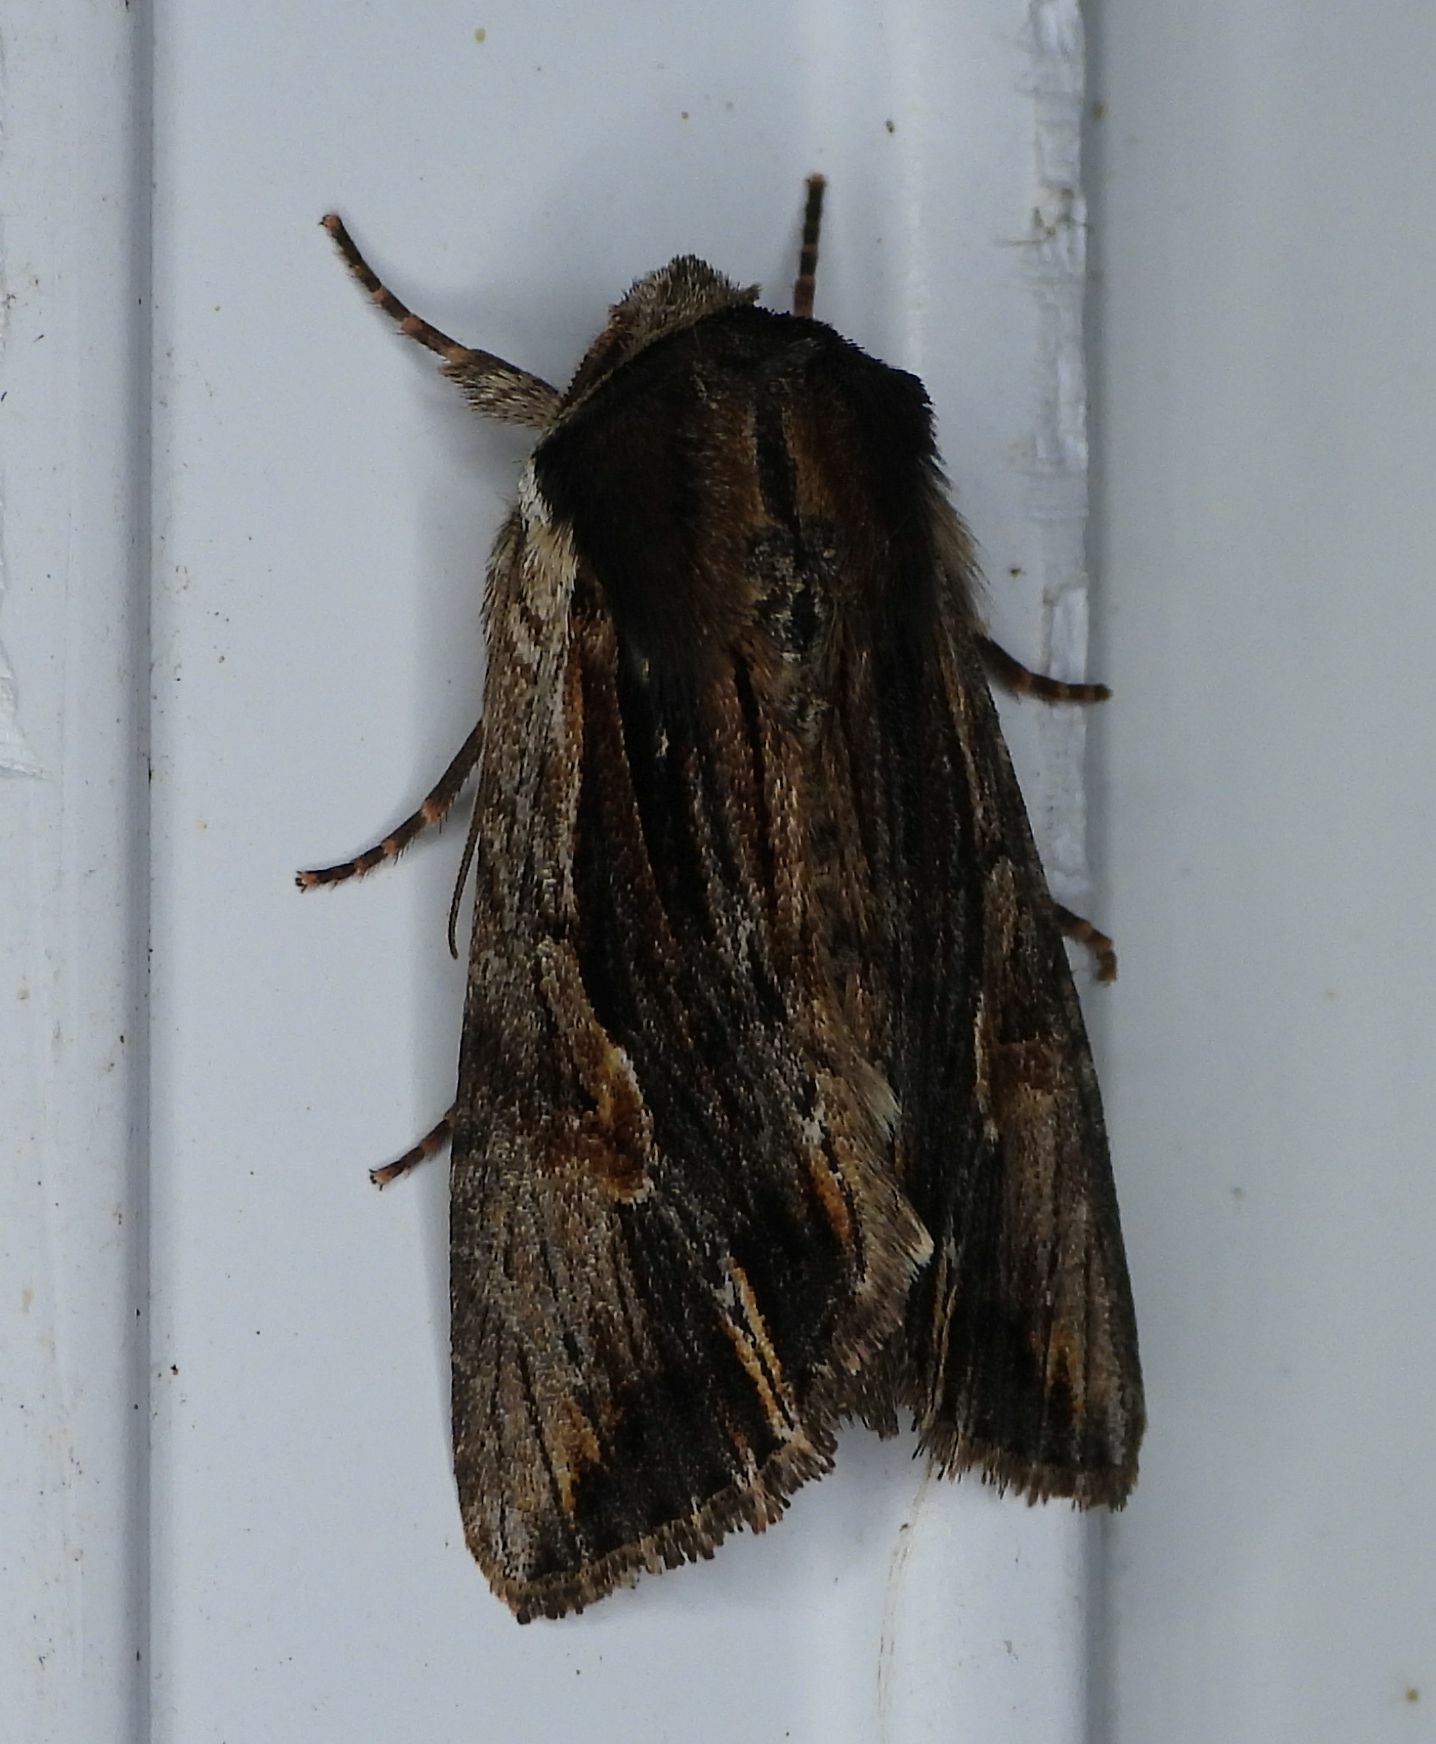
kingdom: Animalia
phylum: Arthropoda
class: Insecta
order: Lepidoptera
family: Noctuidae
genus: Achatia
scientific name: Achatia evicta
